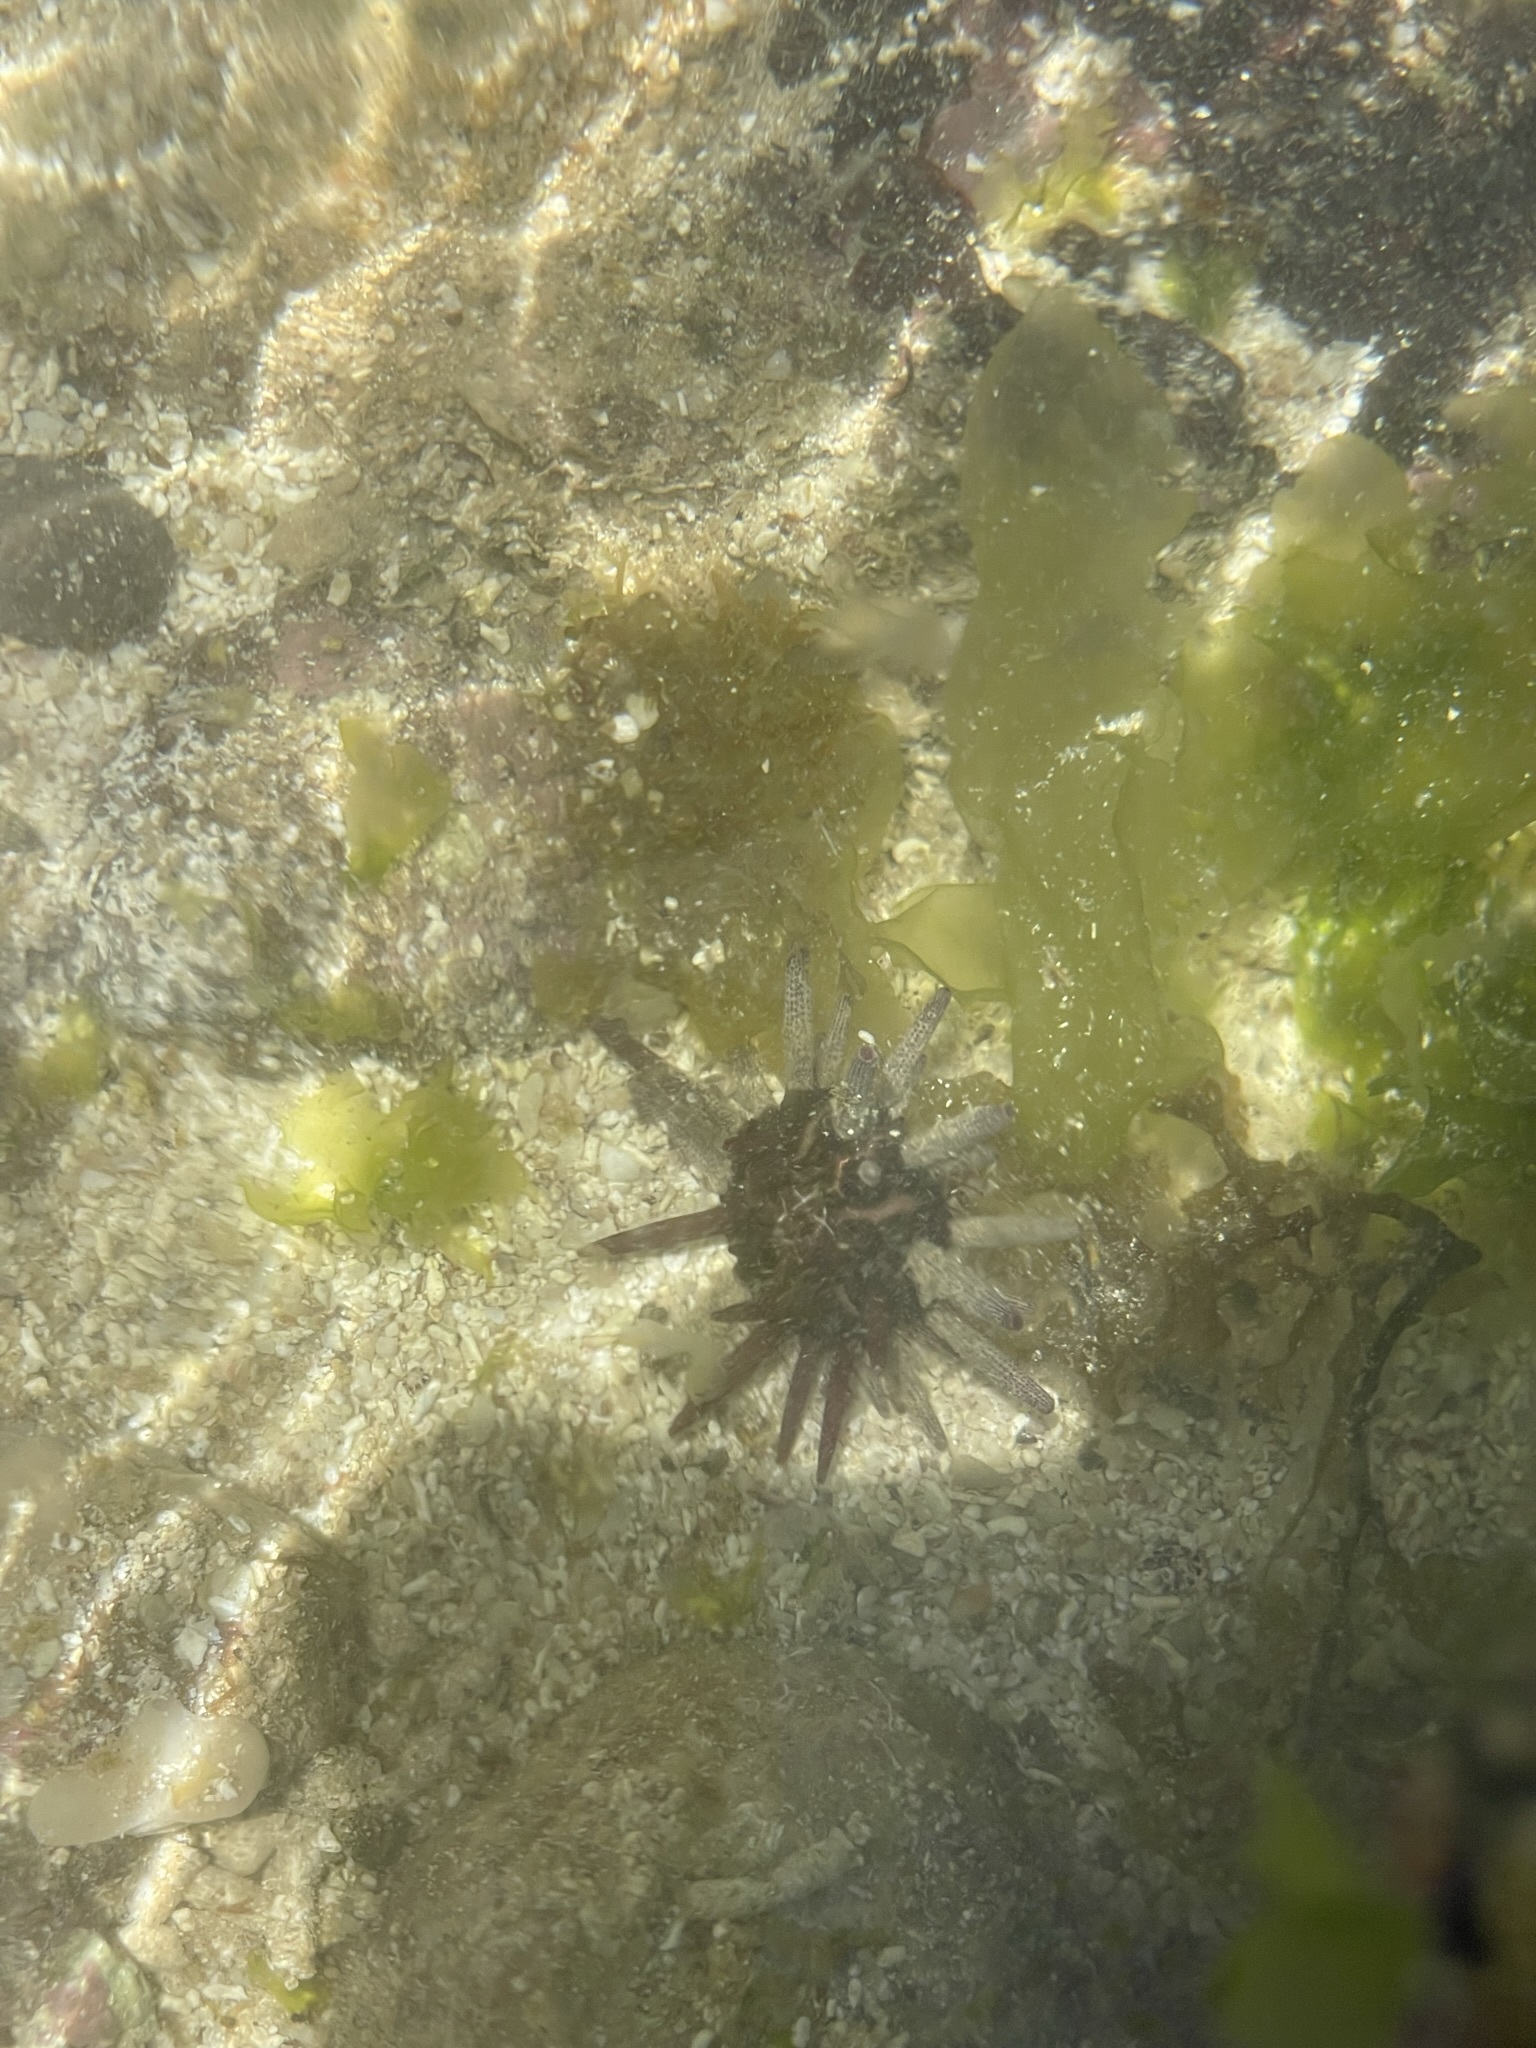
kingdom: Animalia
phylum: Echinodermata
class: Echinoidea
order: Cidaroida
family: Cidaridae
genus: Eucidaris
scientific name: Eucidaris thouarsii
